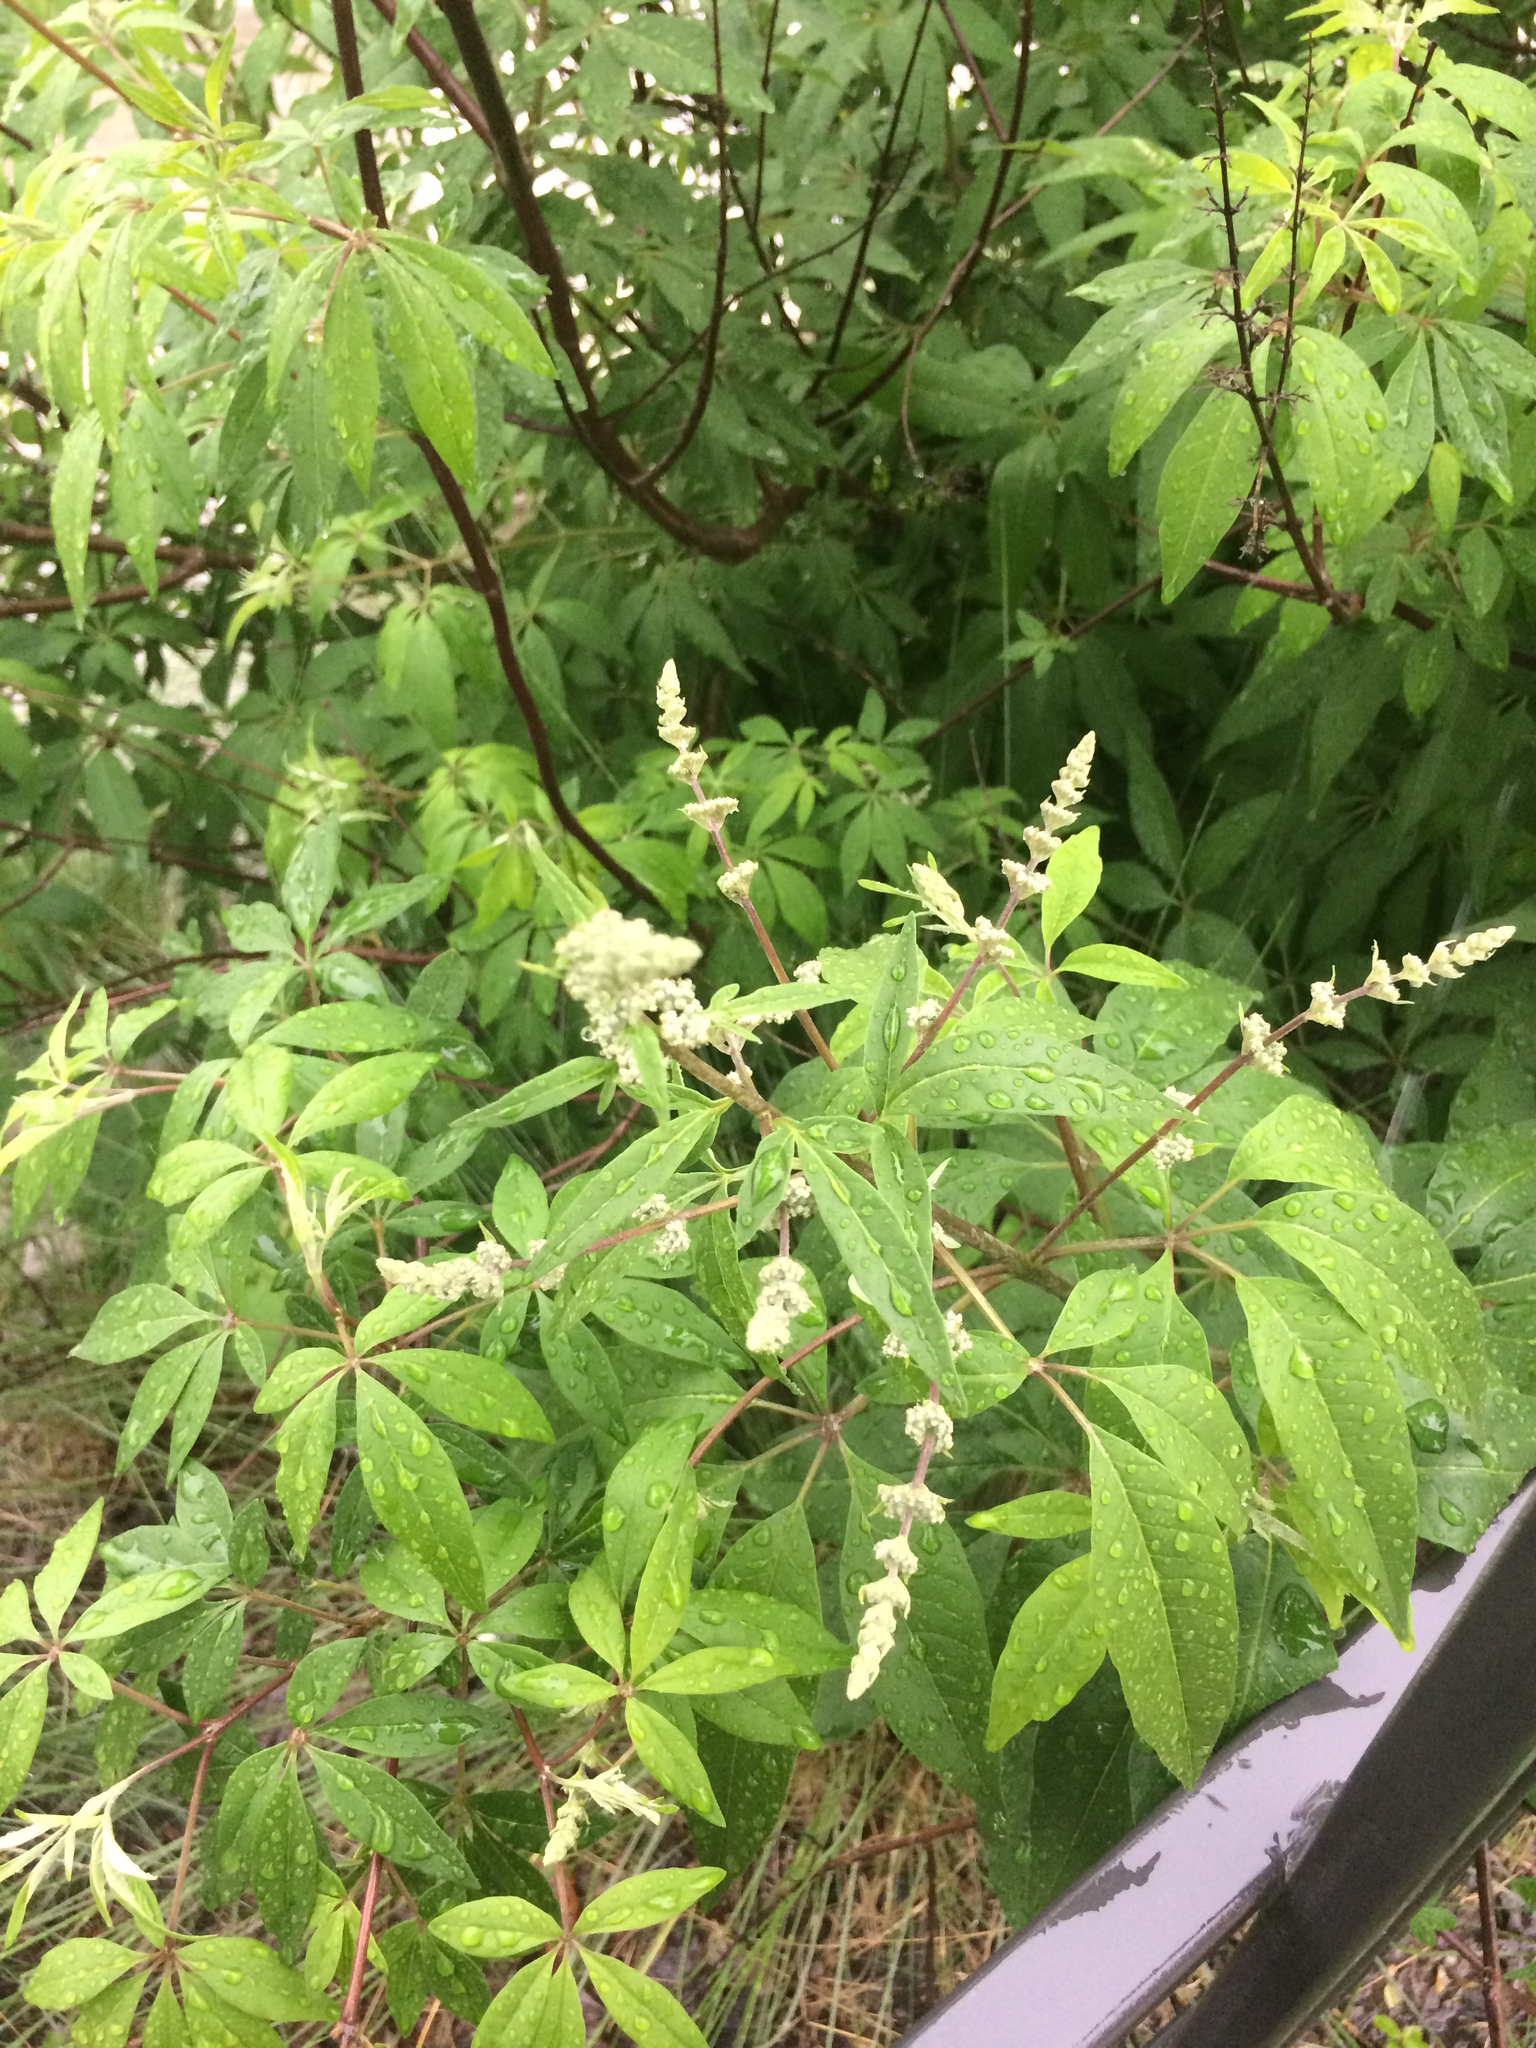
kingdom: Plantae
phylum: Tracheophyta
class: Magnoliopsida
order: Lamiales
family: Lamiaceae
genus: Vitex
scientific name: Vitex agnus-castus
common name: Chasteberry
